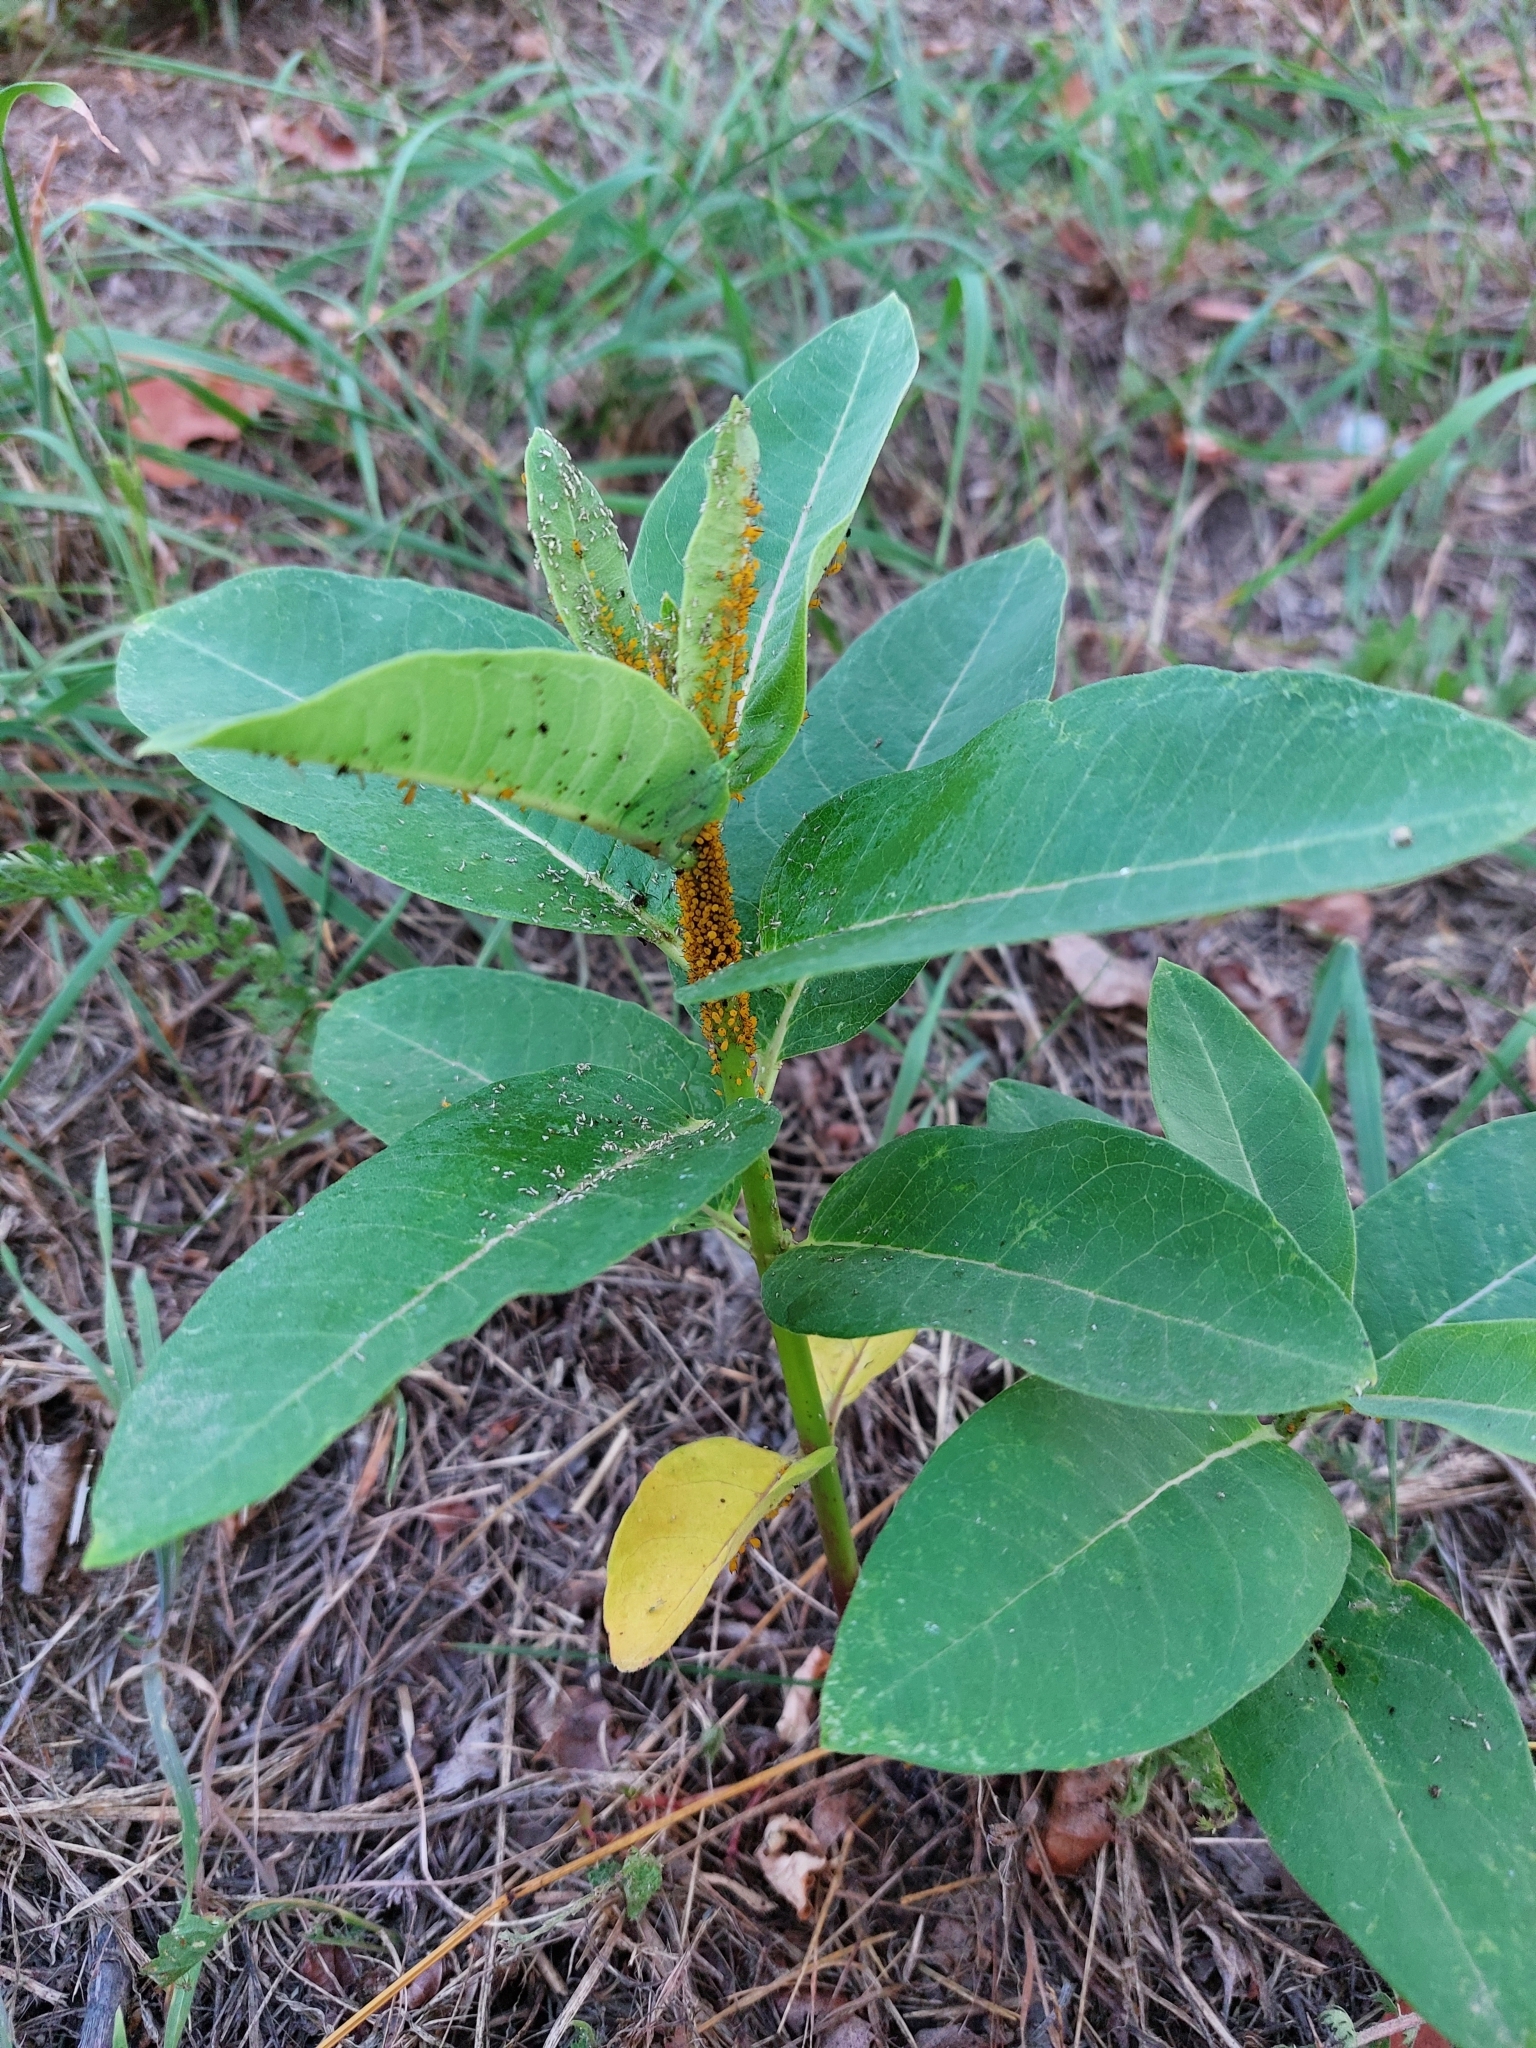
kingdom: Plantae
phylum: Tracheophyta
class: Magnoliopsida
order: Gentianales
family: Apocynaceae
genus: Asclepias
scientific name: Asclepias syriaca
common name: Common milkweed
